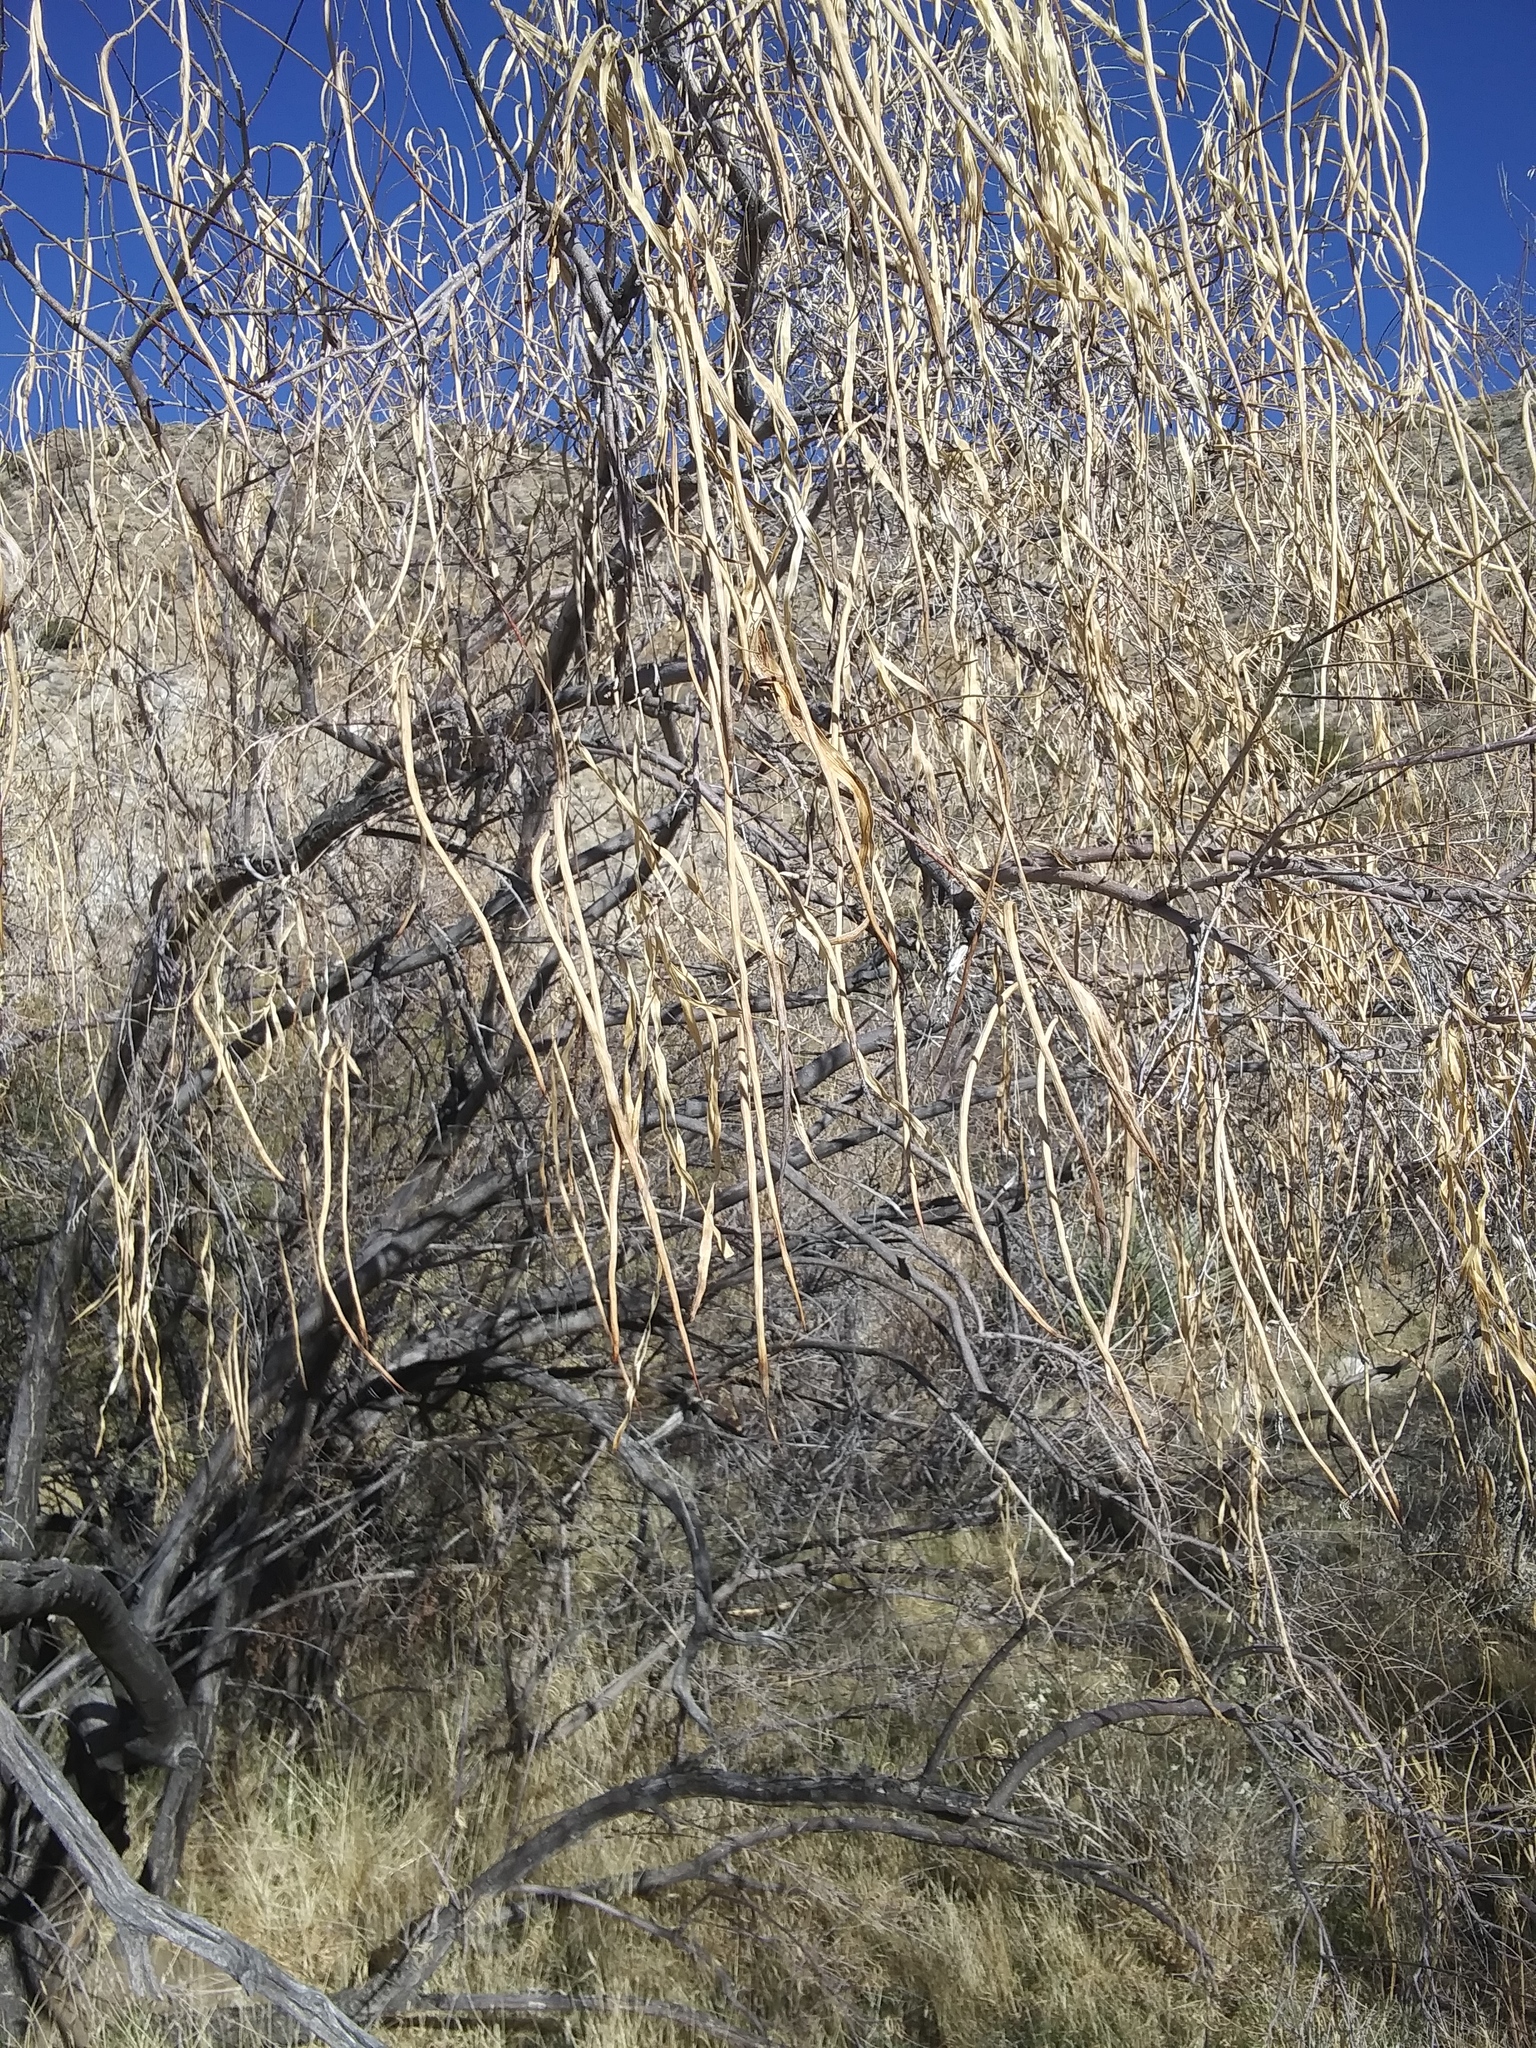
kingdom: Plantae
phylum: Tracheophyta
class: Magnoliopsida
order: Lamiales
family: Bignoniaceae
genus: Chilopsis
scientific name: Chilopsis linearis
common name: Desert-willow
